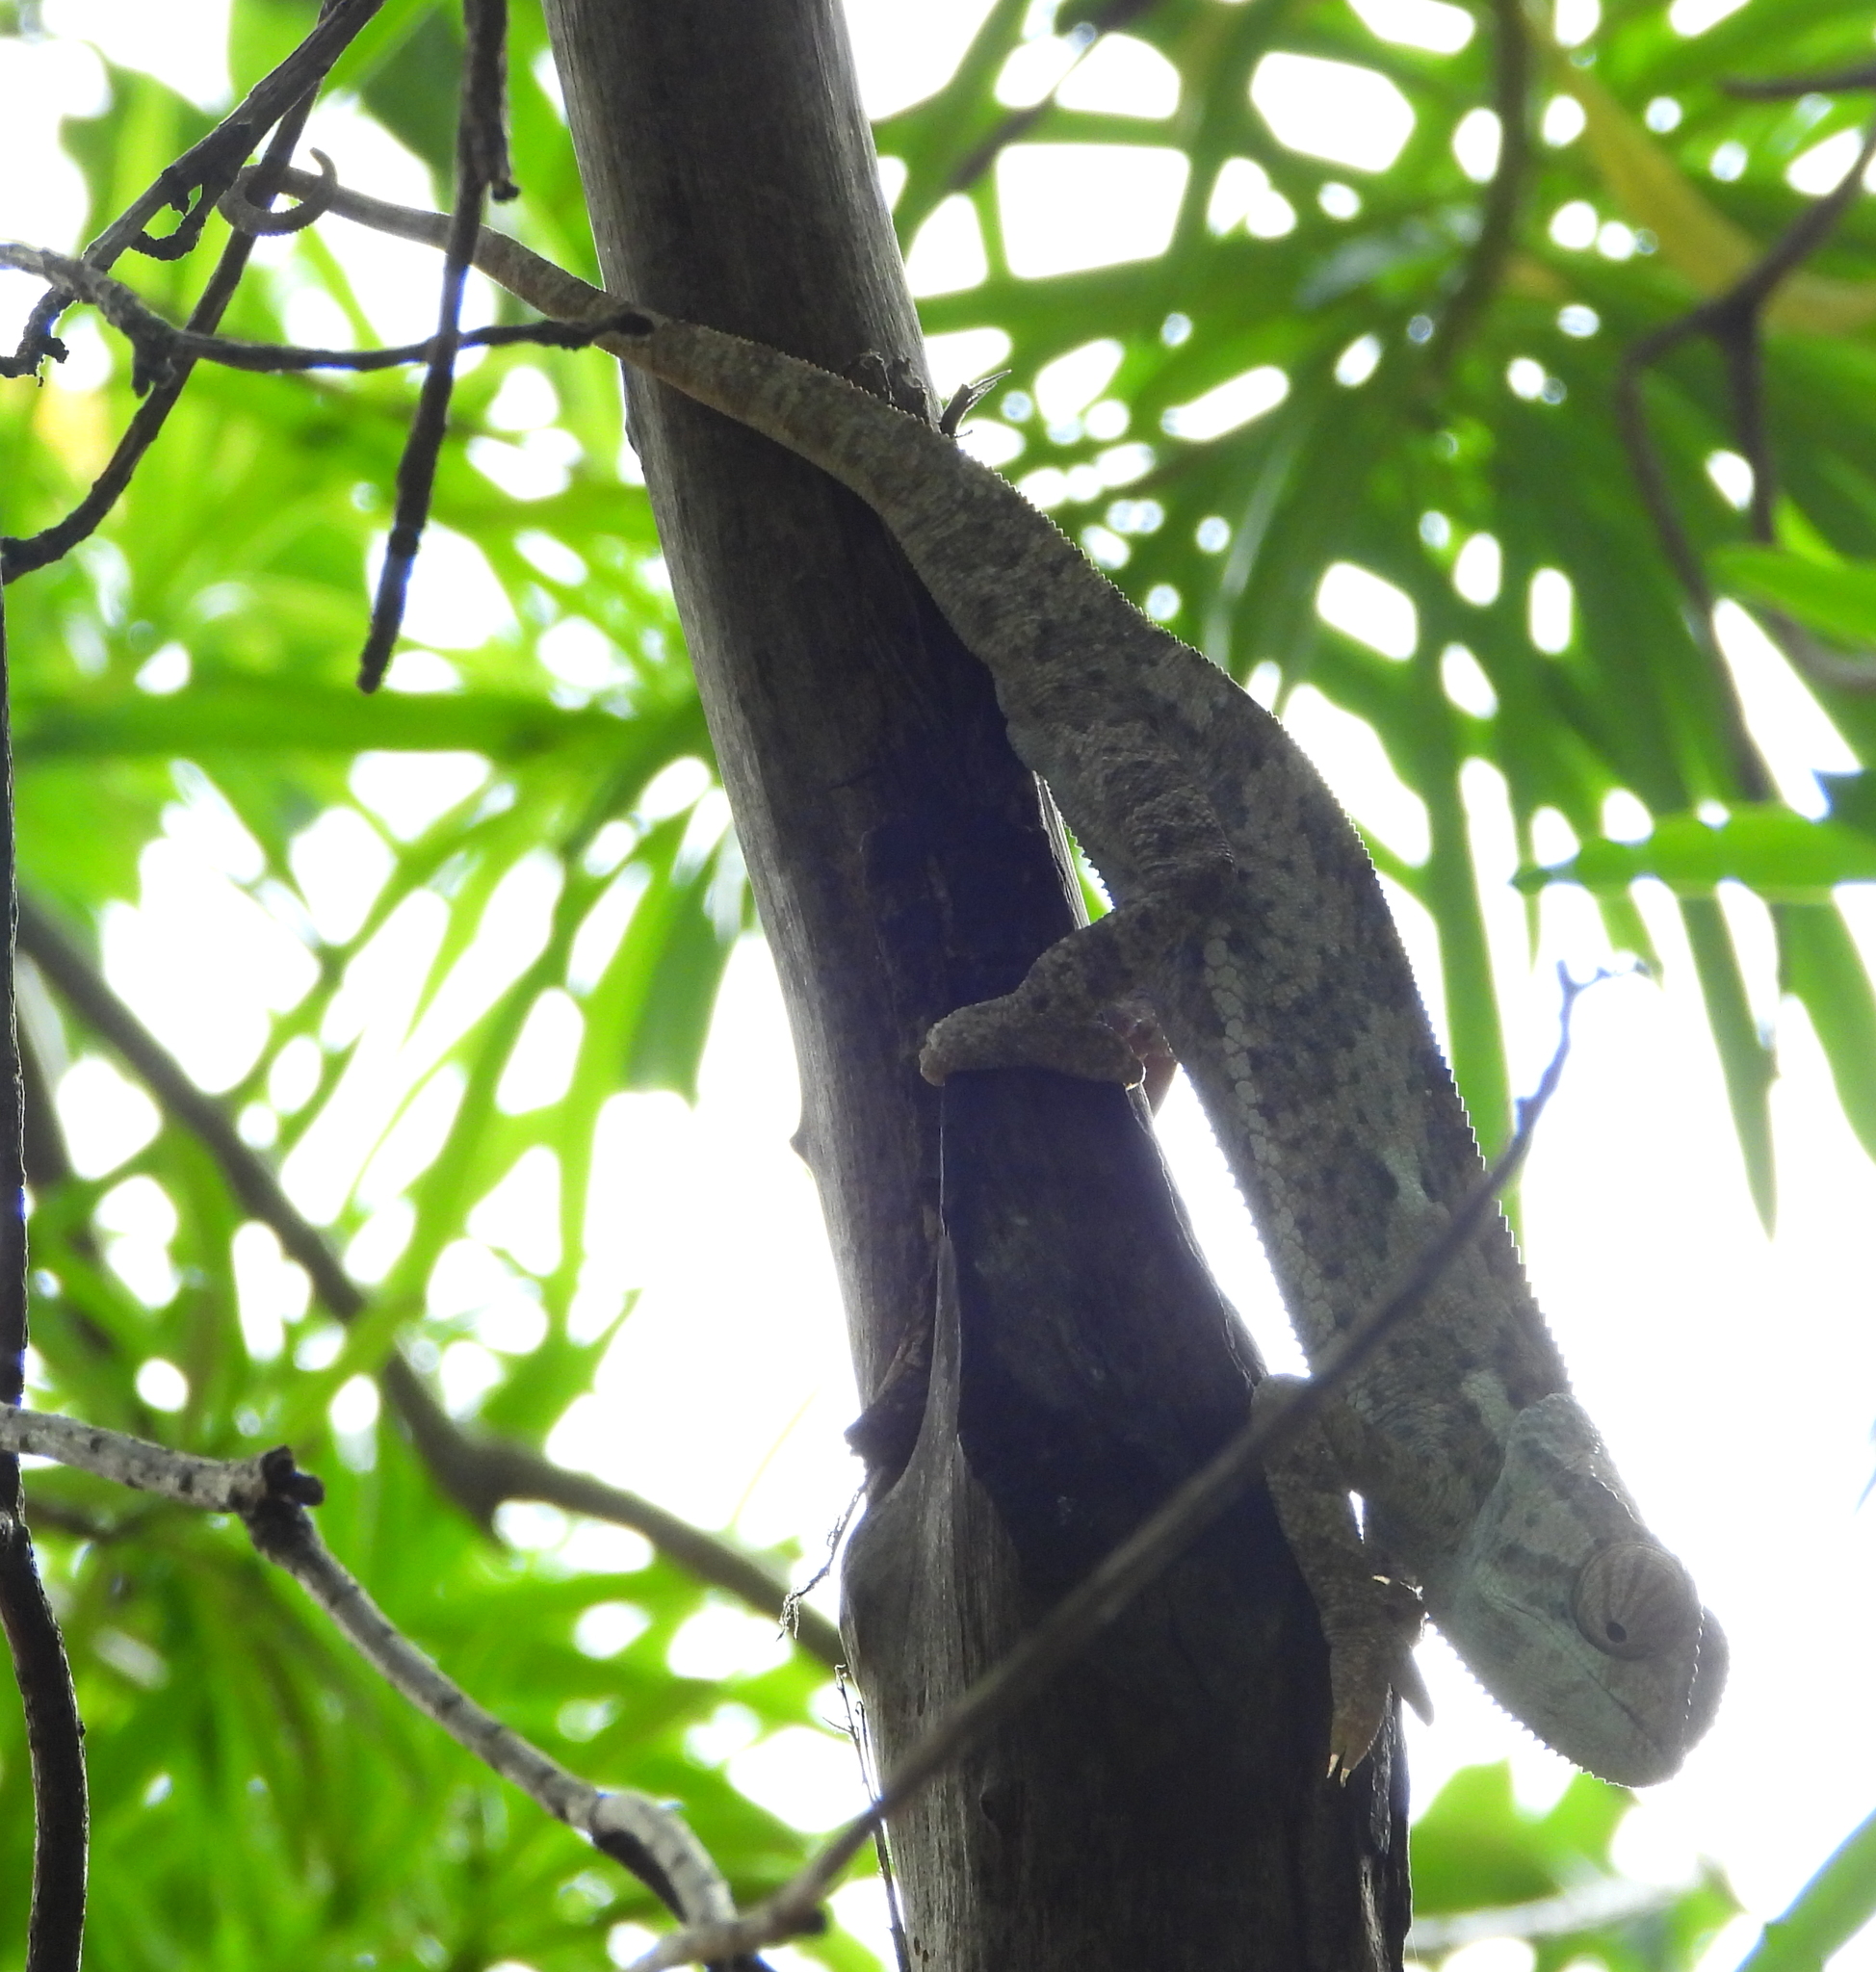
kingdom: Animalia
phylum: Chordata
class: Squamata
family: Chamaeleonidae
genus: Chamaeleo
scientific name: Chamaeleo dilepis
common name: Flapneck chameleon
